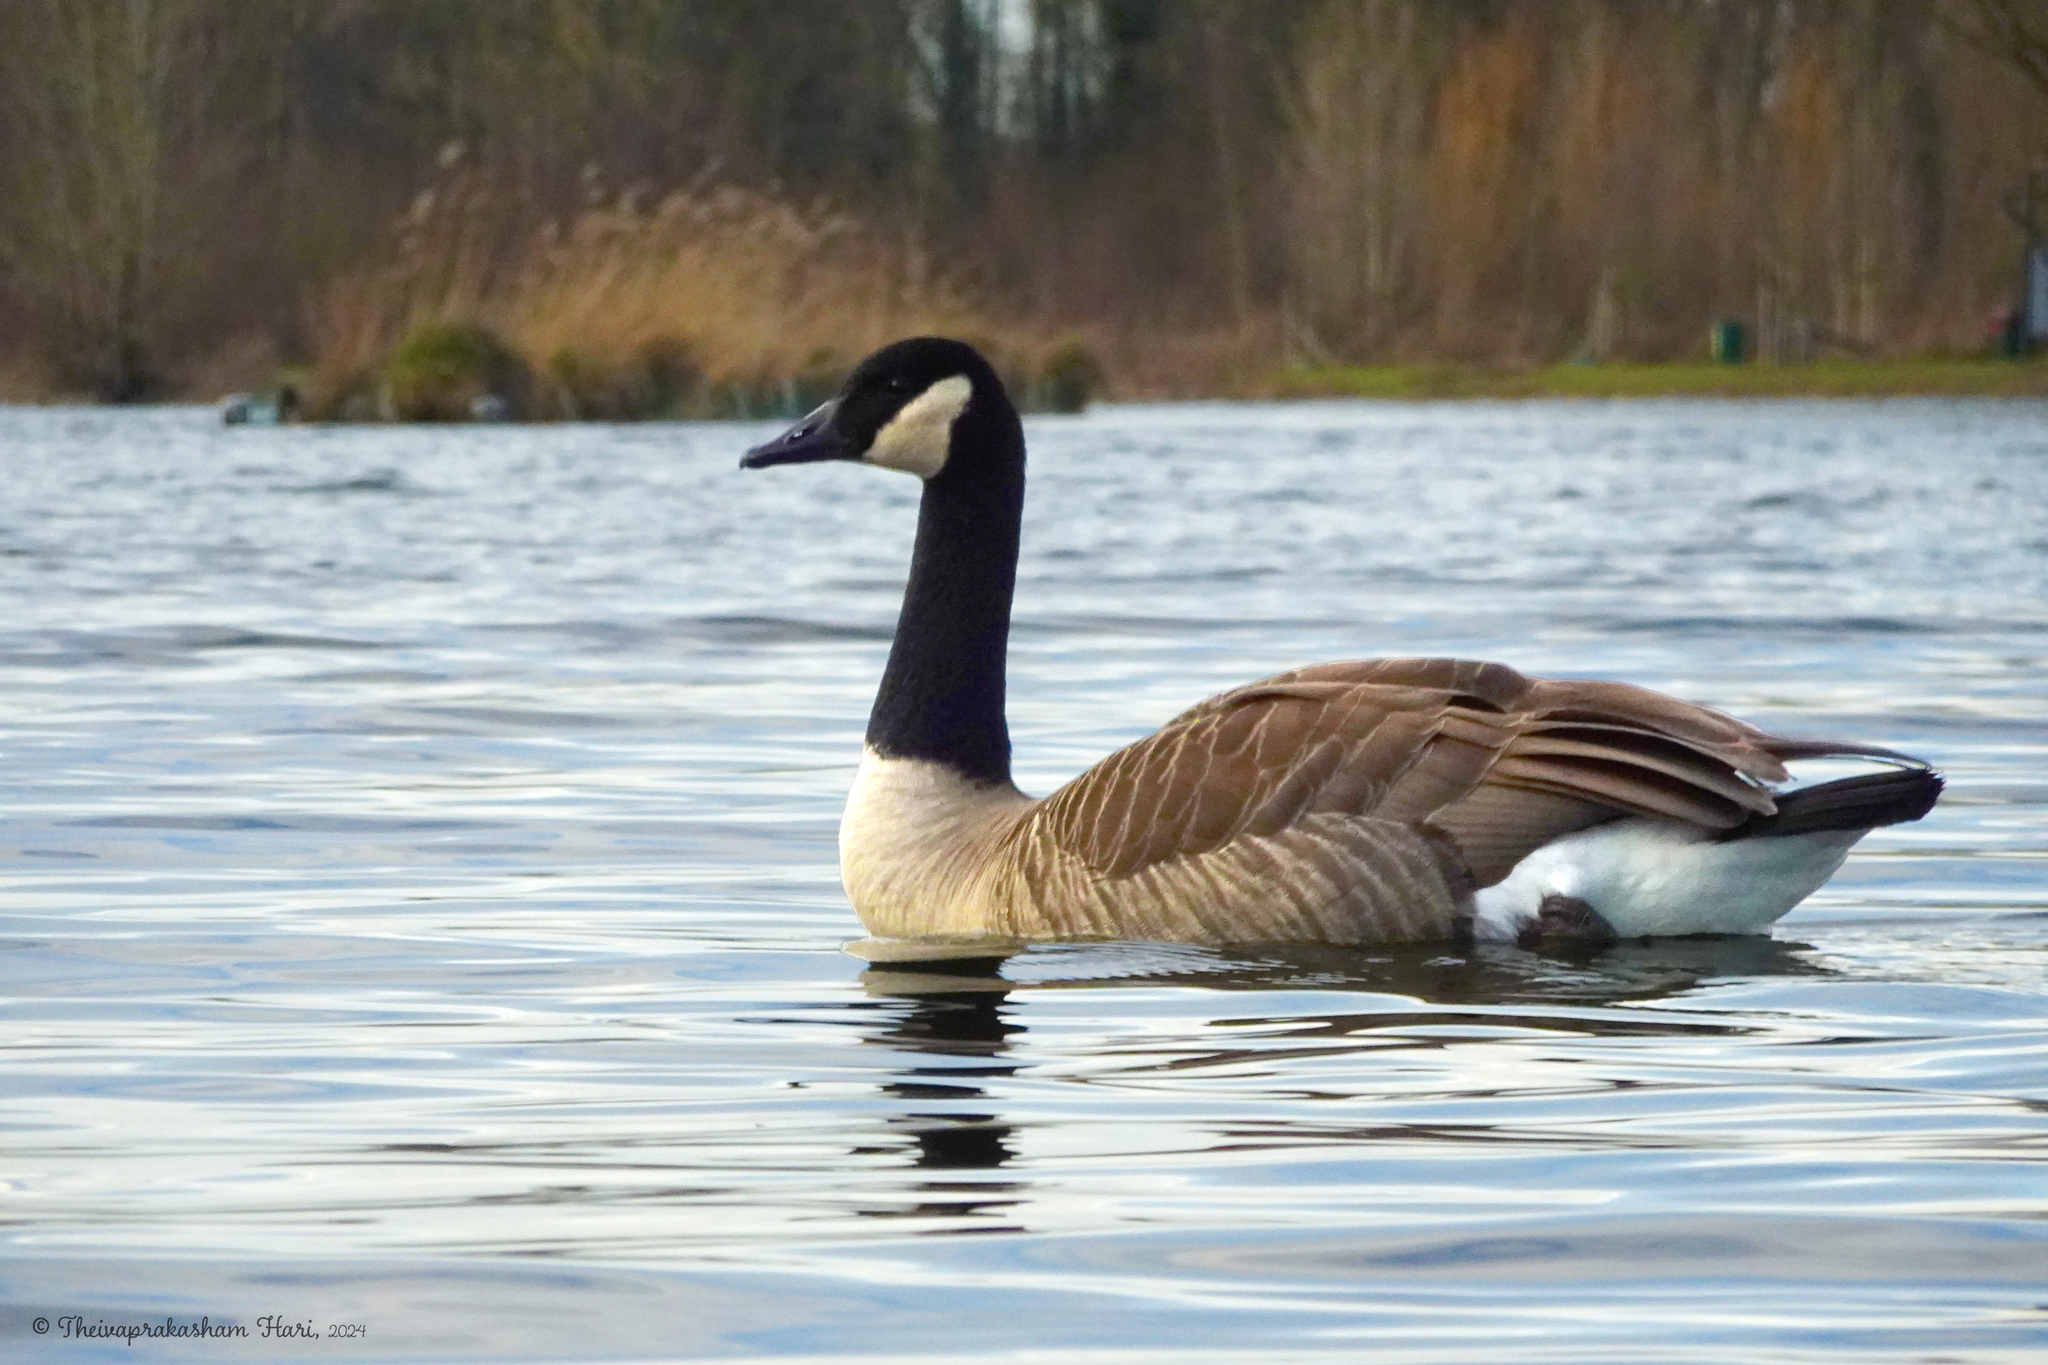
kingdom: Animalia
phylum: Chordata
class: Aves
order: Anseriformes
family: Anatidae
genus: Branta
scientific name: Branta canadensis
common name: Canada goose
